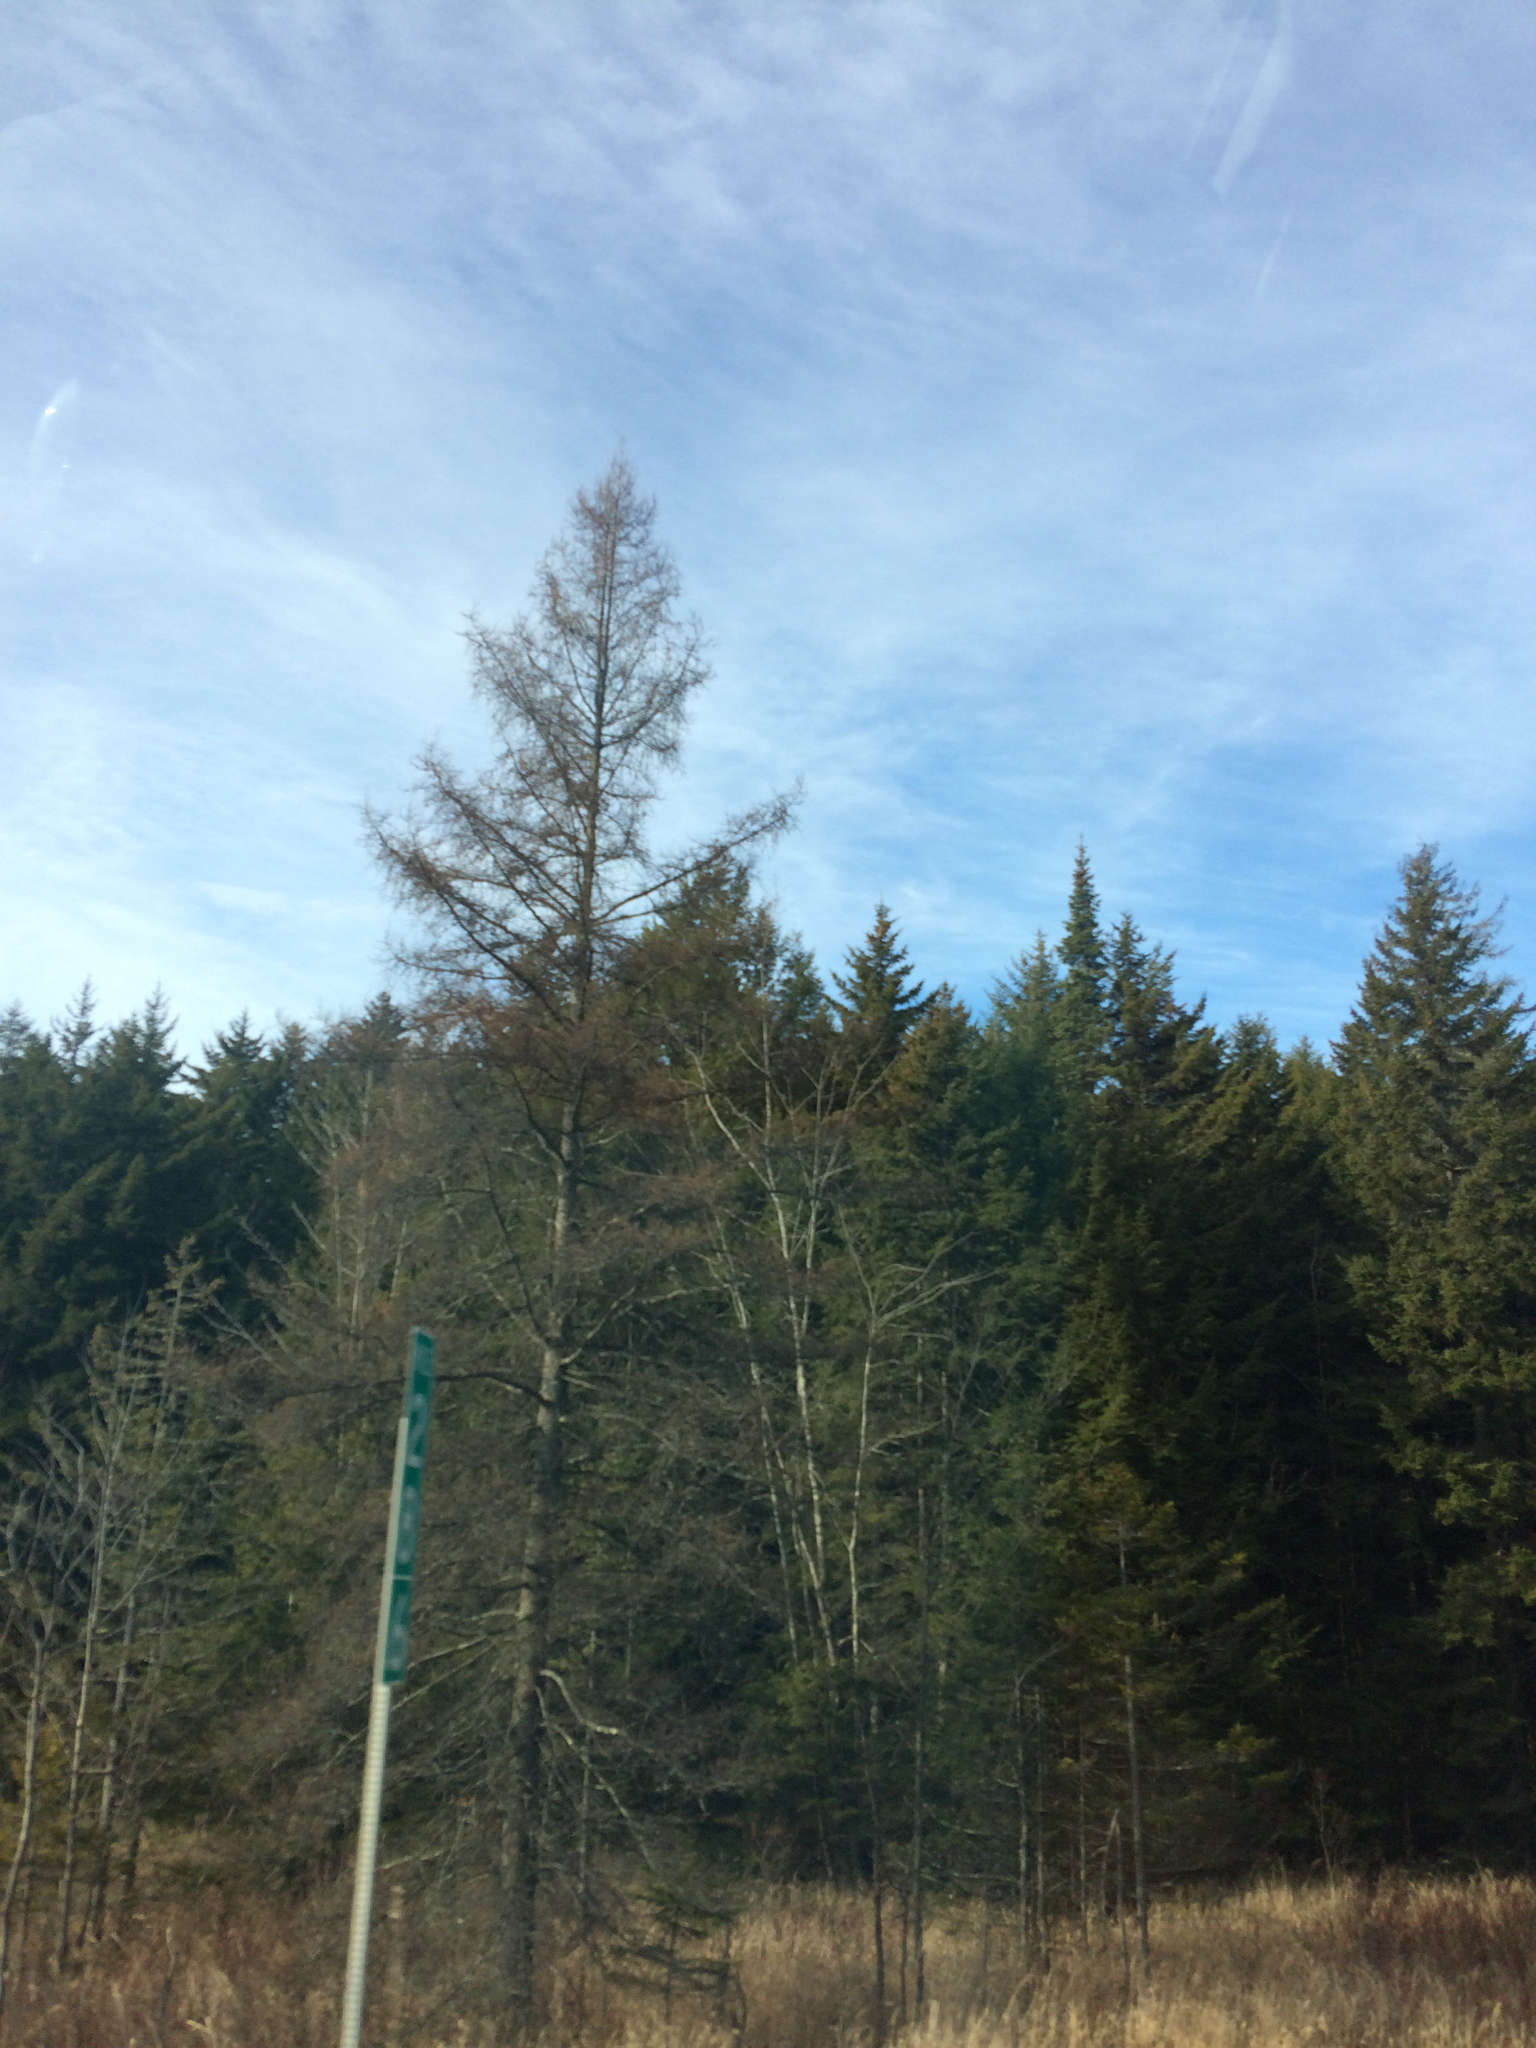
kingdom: Plantae
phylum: Tracheophyta
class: Pinopsida
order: Pinales
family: Pinaceae
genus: Larix
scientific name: Larix laricina
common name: American larch
